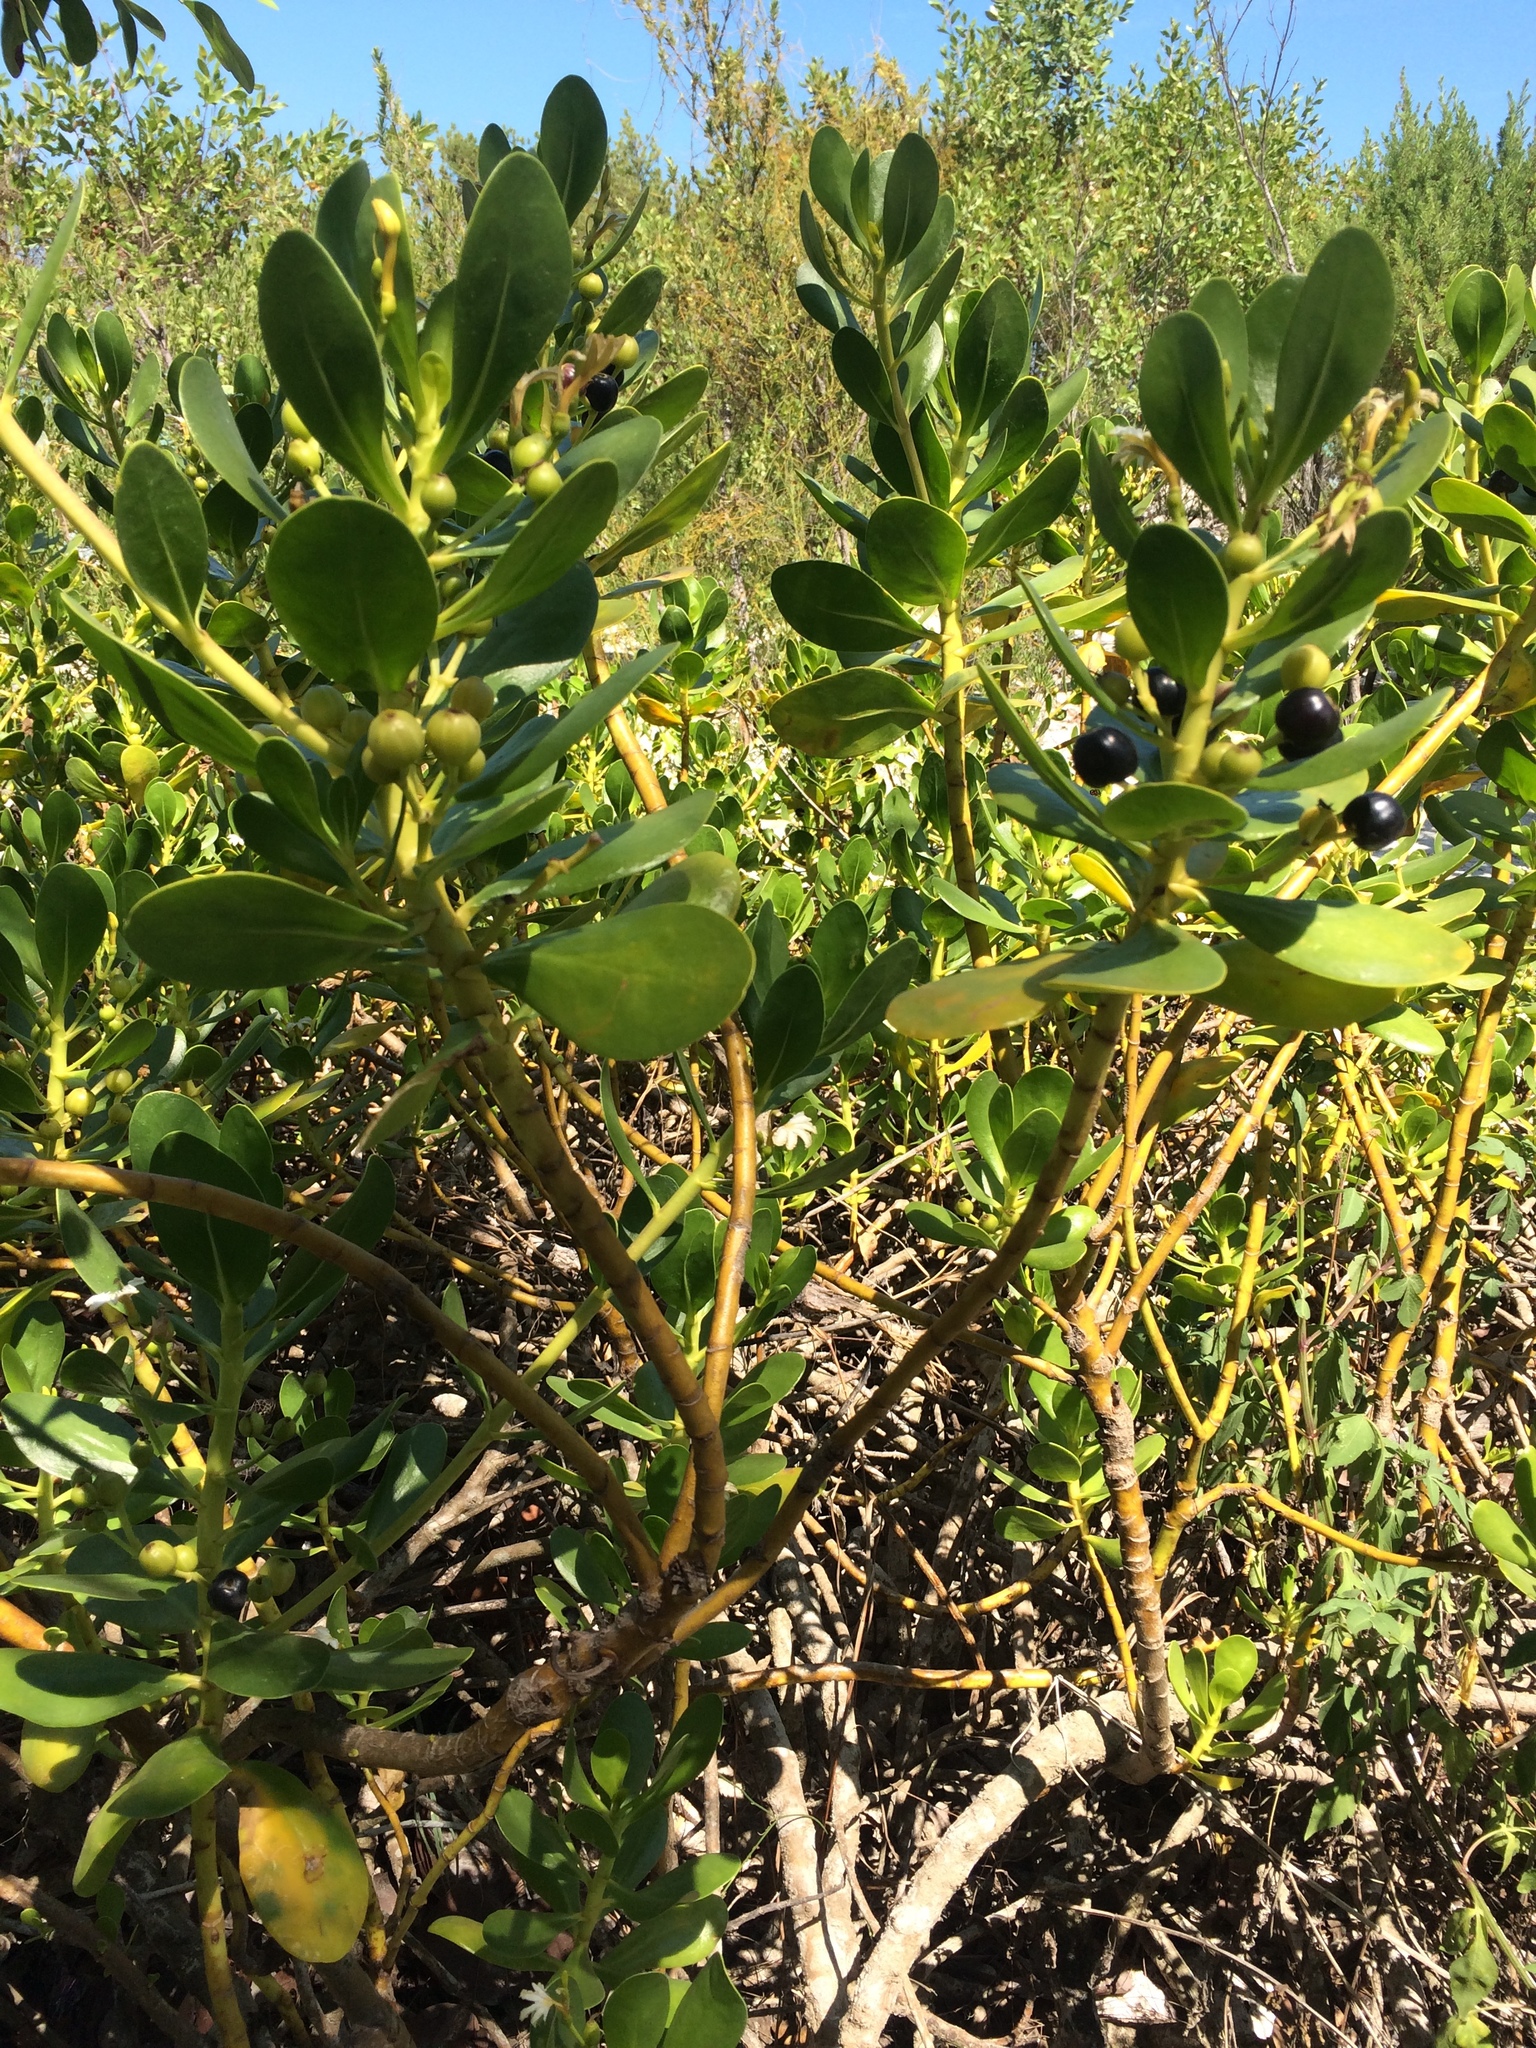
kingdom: Plantae
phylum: Tracheophyta
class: Magnoliopsida
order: Asterales
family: Goodeniaceae
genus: Scaevola
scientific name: Scaevola plumieri
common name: Gull feed
